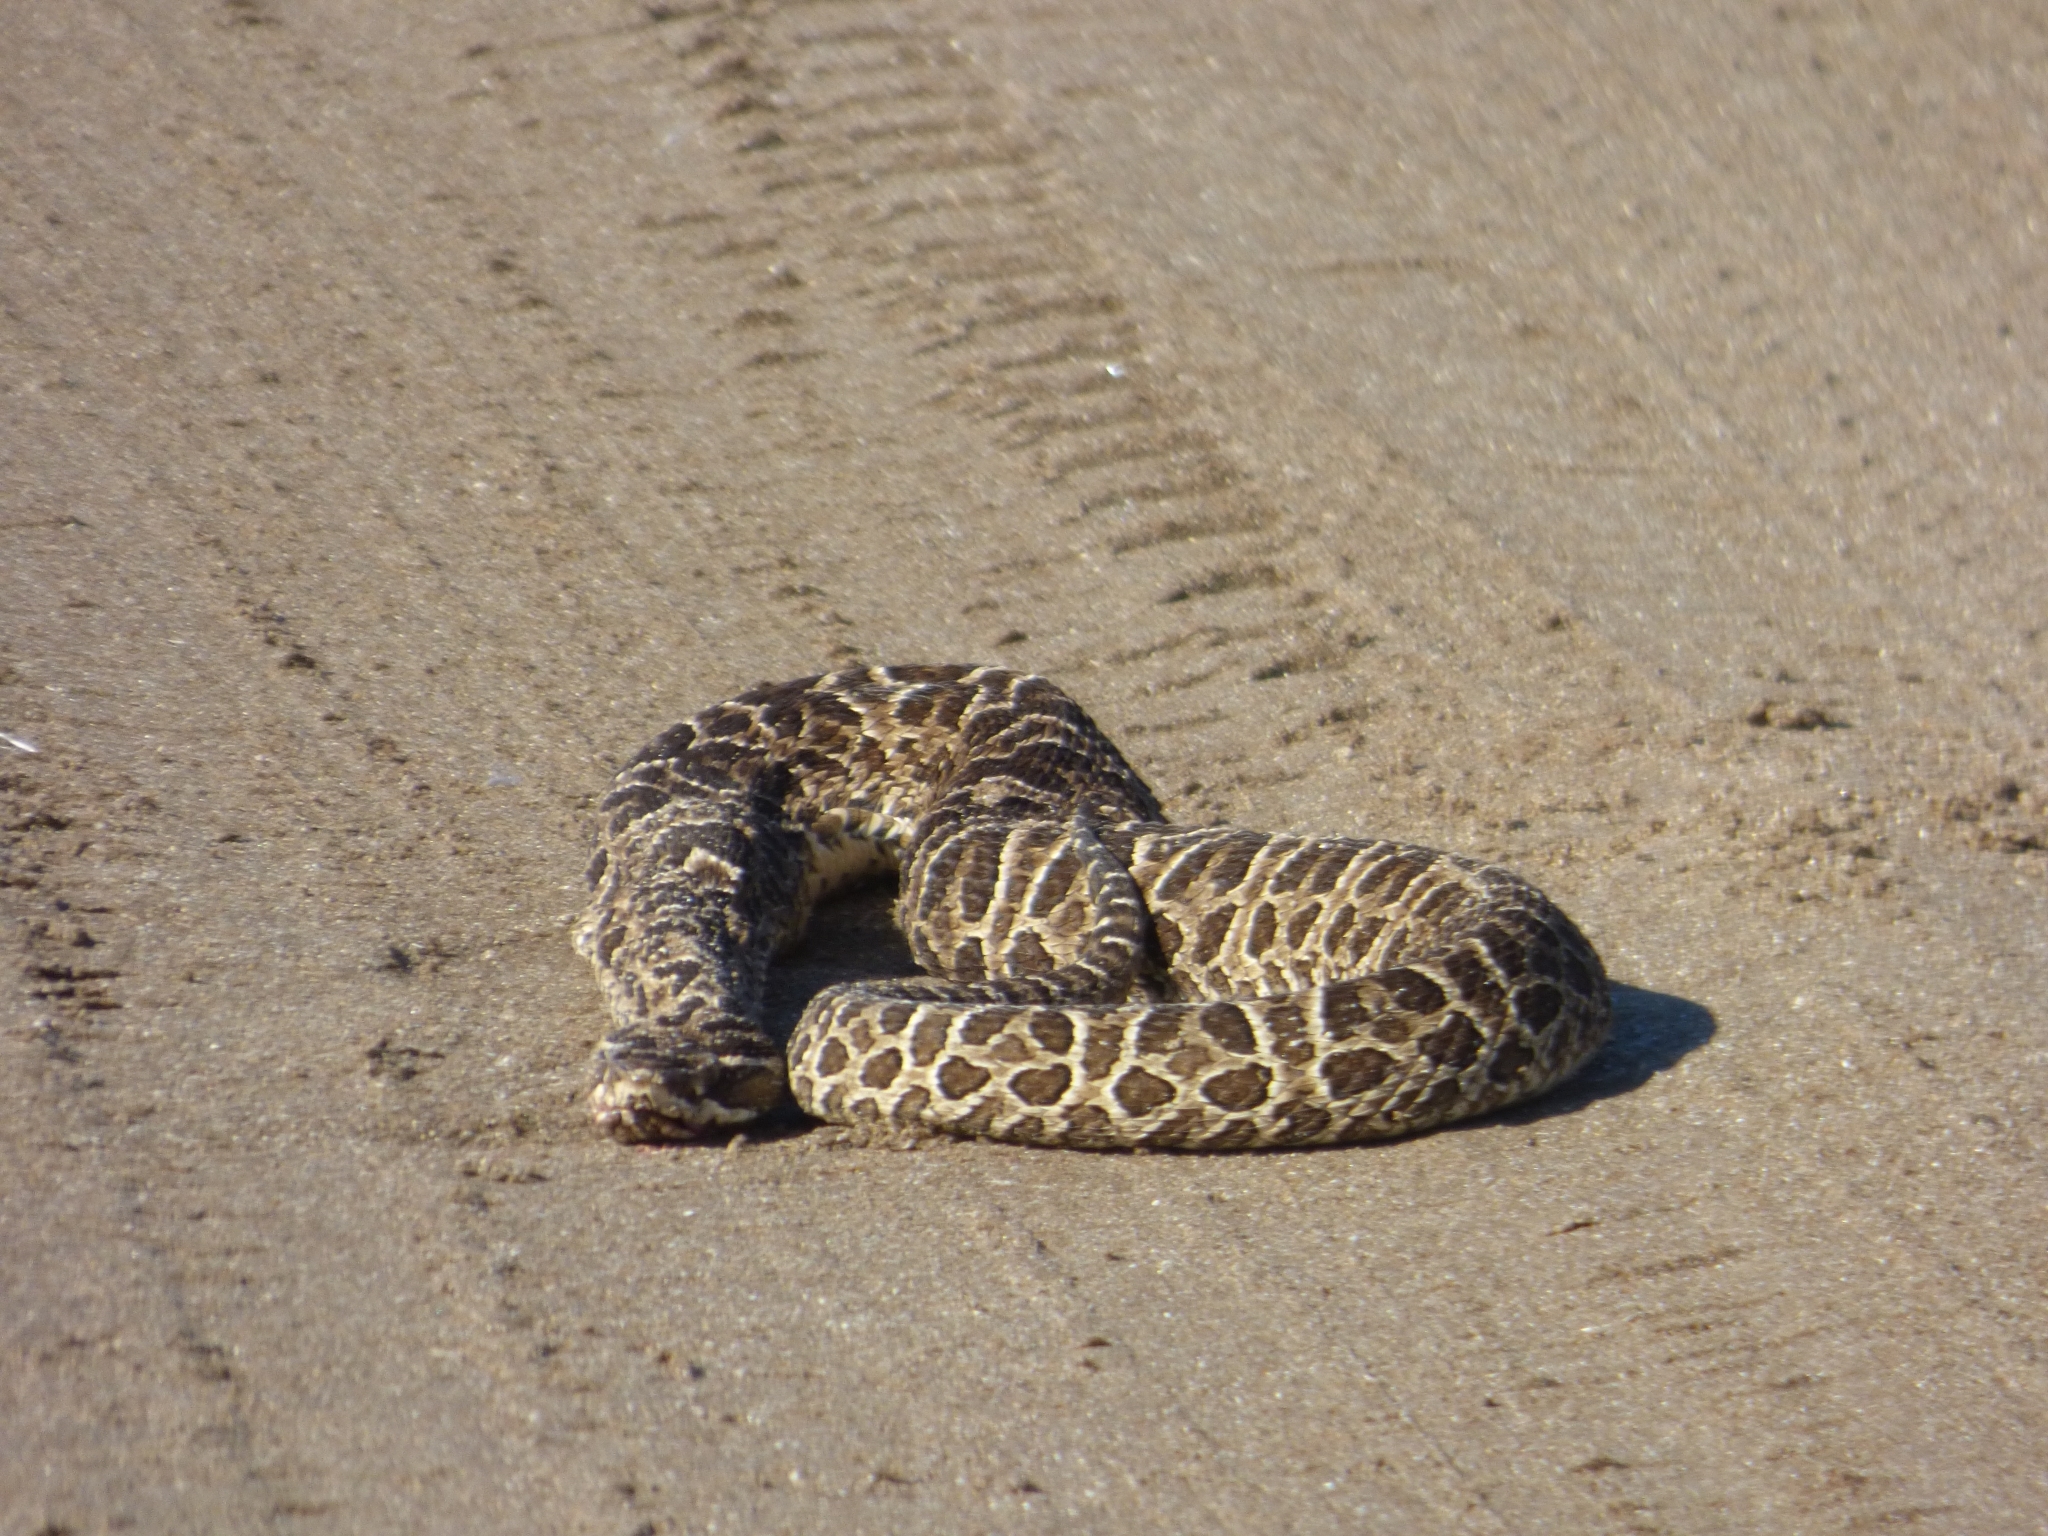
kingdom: Animalia
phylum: Chordata
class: Squamata
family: Viperidae
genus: Bothrops
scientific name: Bothrops alternatus
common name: Urutu
